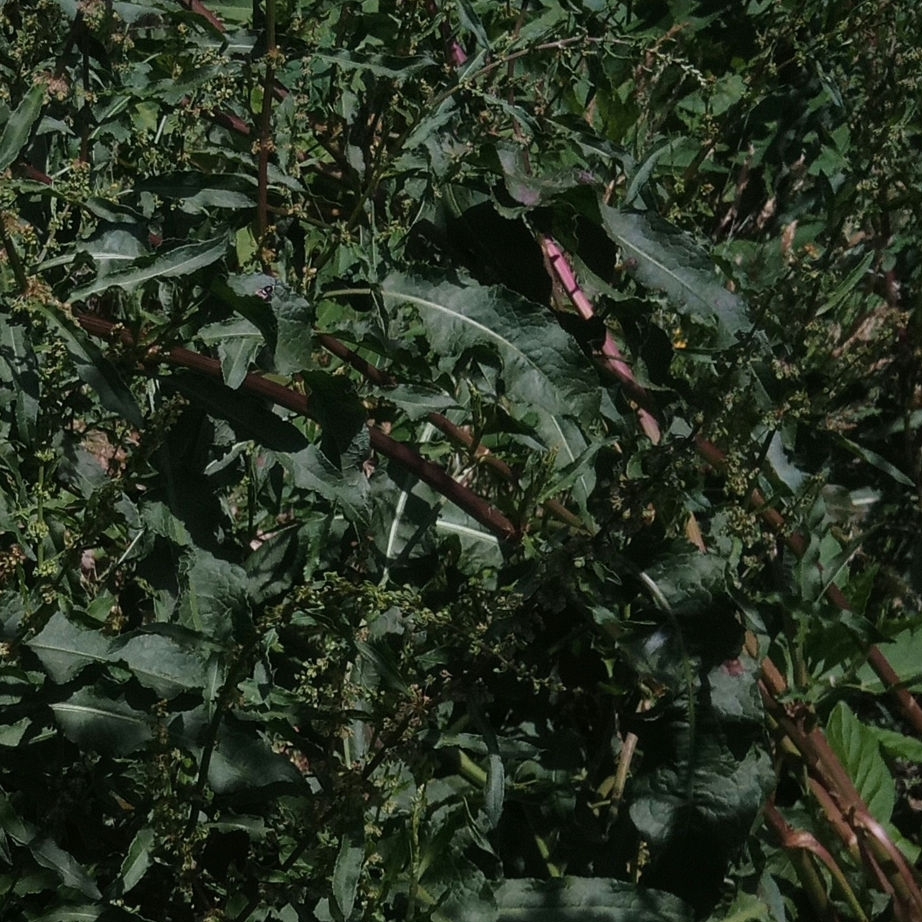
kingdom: Plantae
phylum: Tracheophyta
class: Magnoliopsida
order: Caryophyllales
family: Polygonaceae
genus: Rumex
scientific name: Rumex crispus
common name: Curled dock
